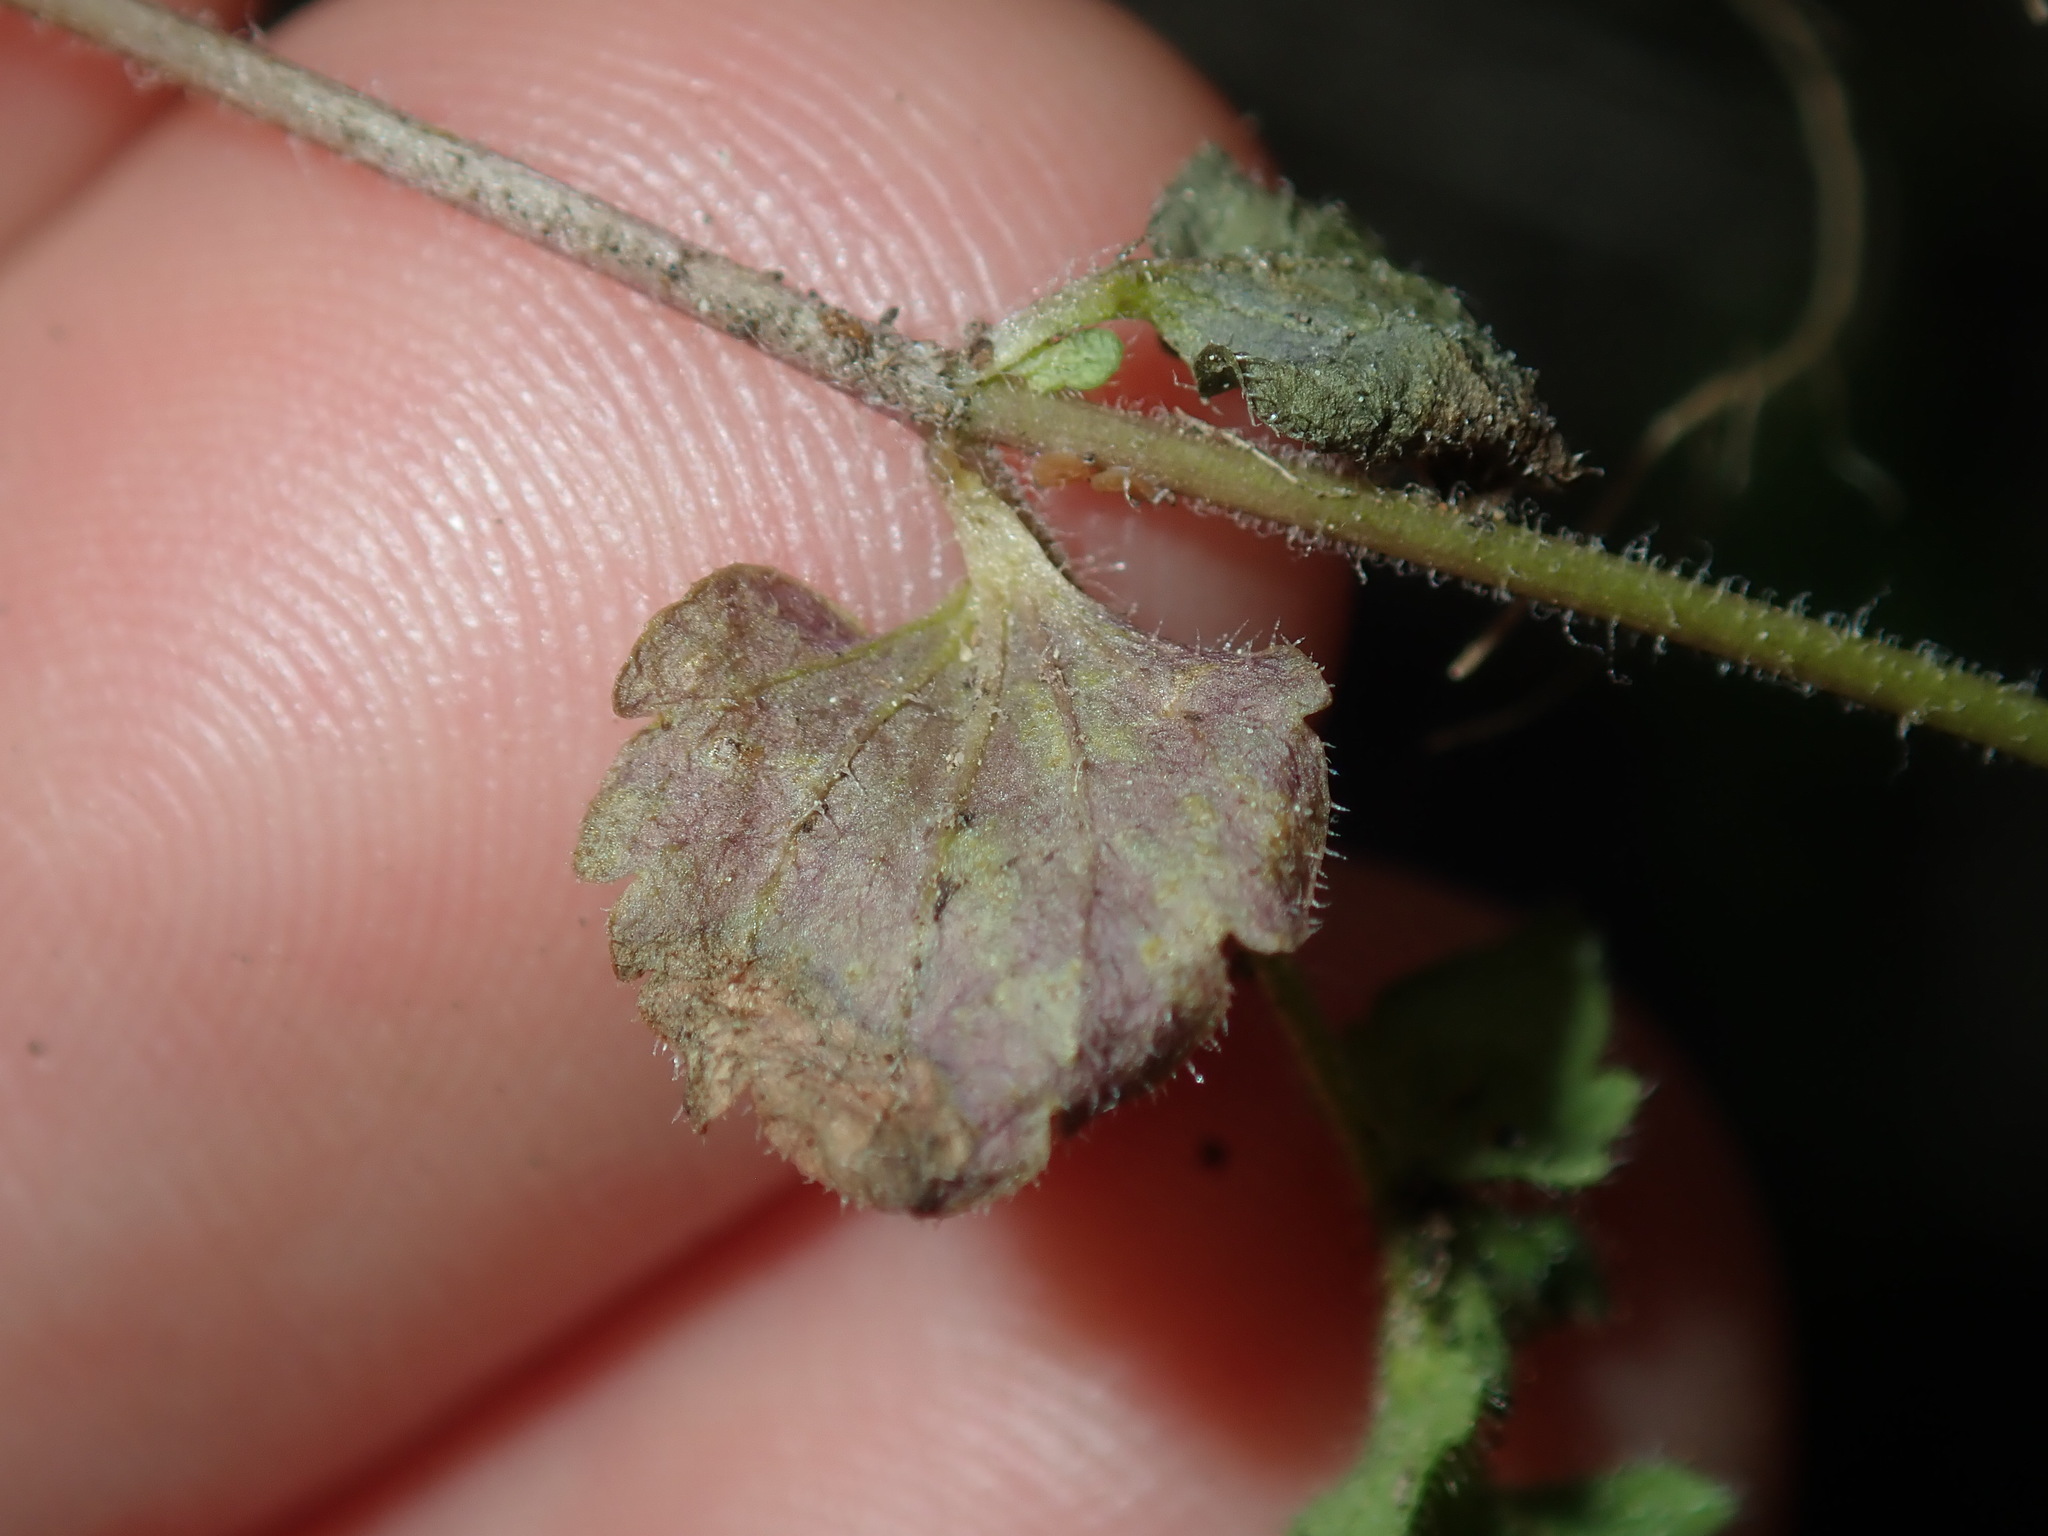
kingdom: Plantae
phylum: Tracheophyta
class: Magnoliopsida
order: Lamiales
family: Plantaginaceae
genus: Veronica
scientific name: Veronica arvensis
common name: Corn speedwell
